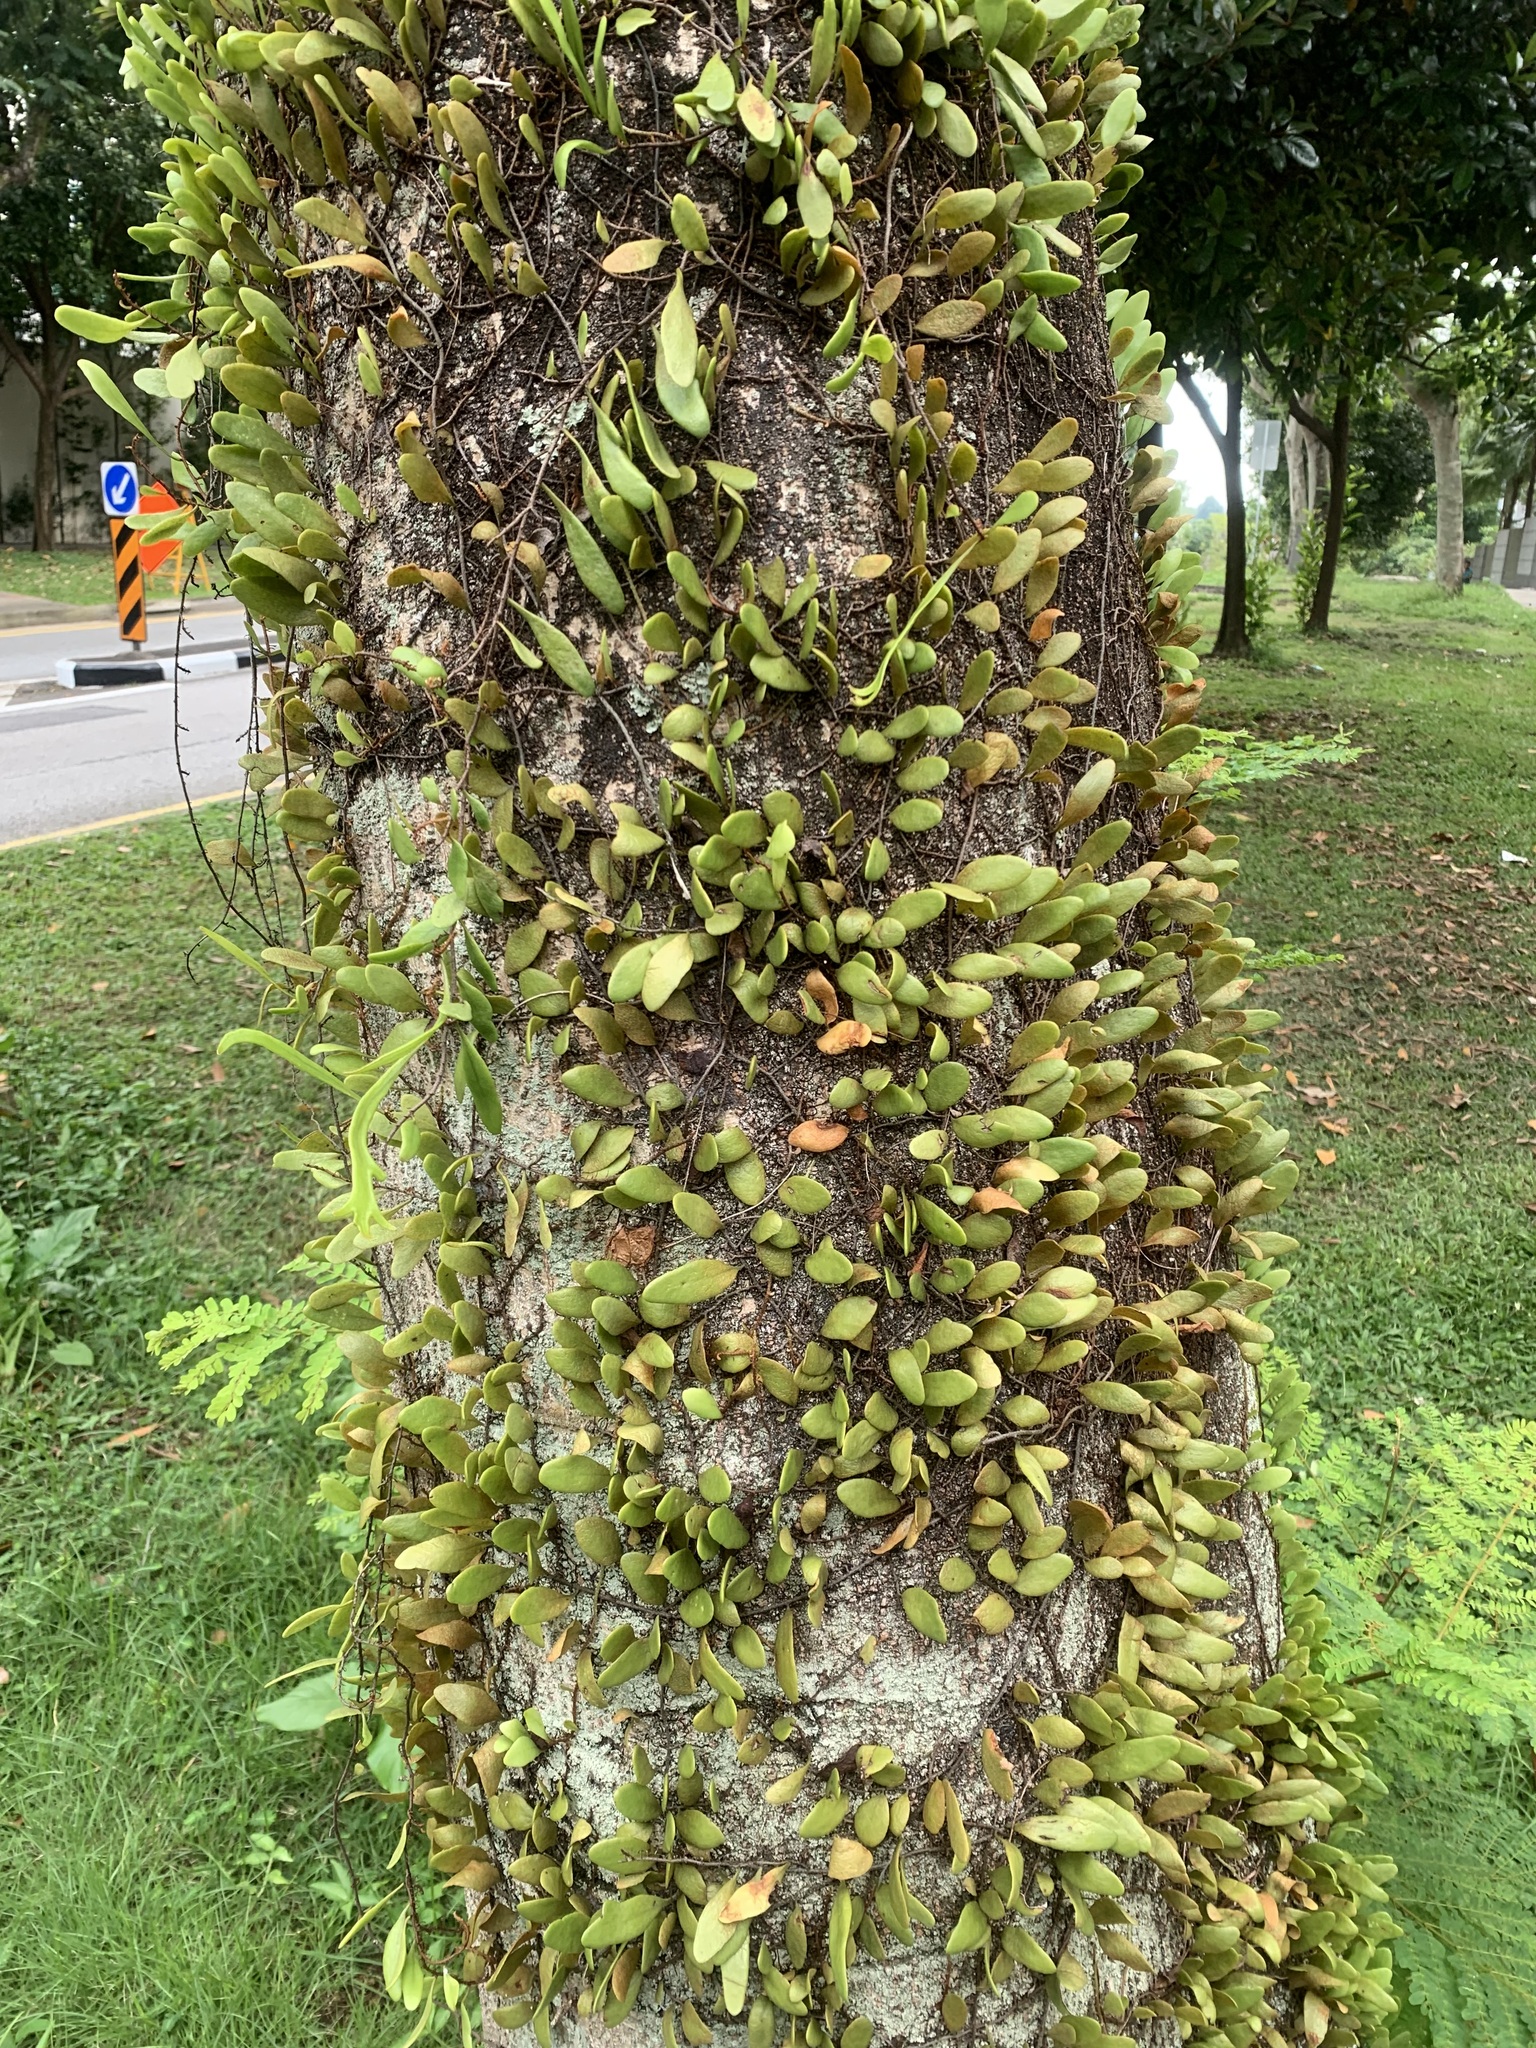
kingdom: Plantae
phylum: Tracheophyta
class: Polypodiopsida
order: Polypodiales
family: Polypodiaceae
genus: Pyrrosia
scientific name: Pyrrosia piloselloides
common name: Epiphytic creeping fern
